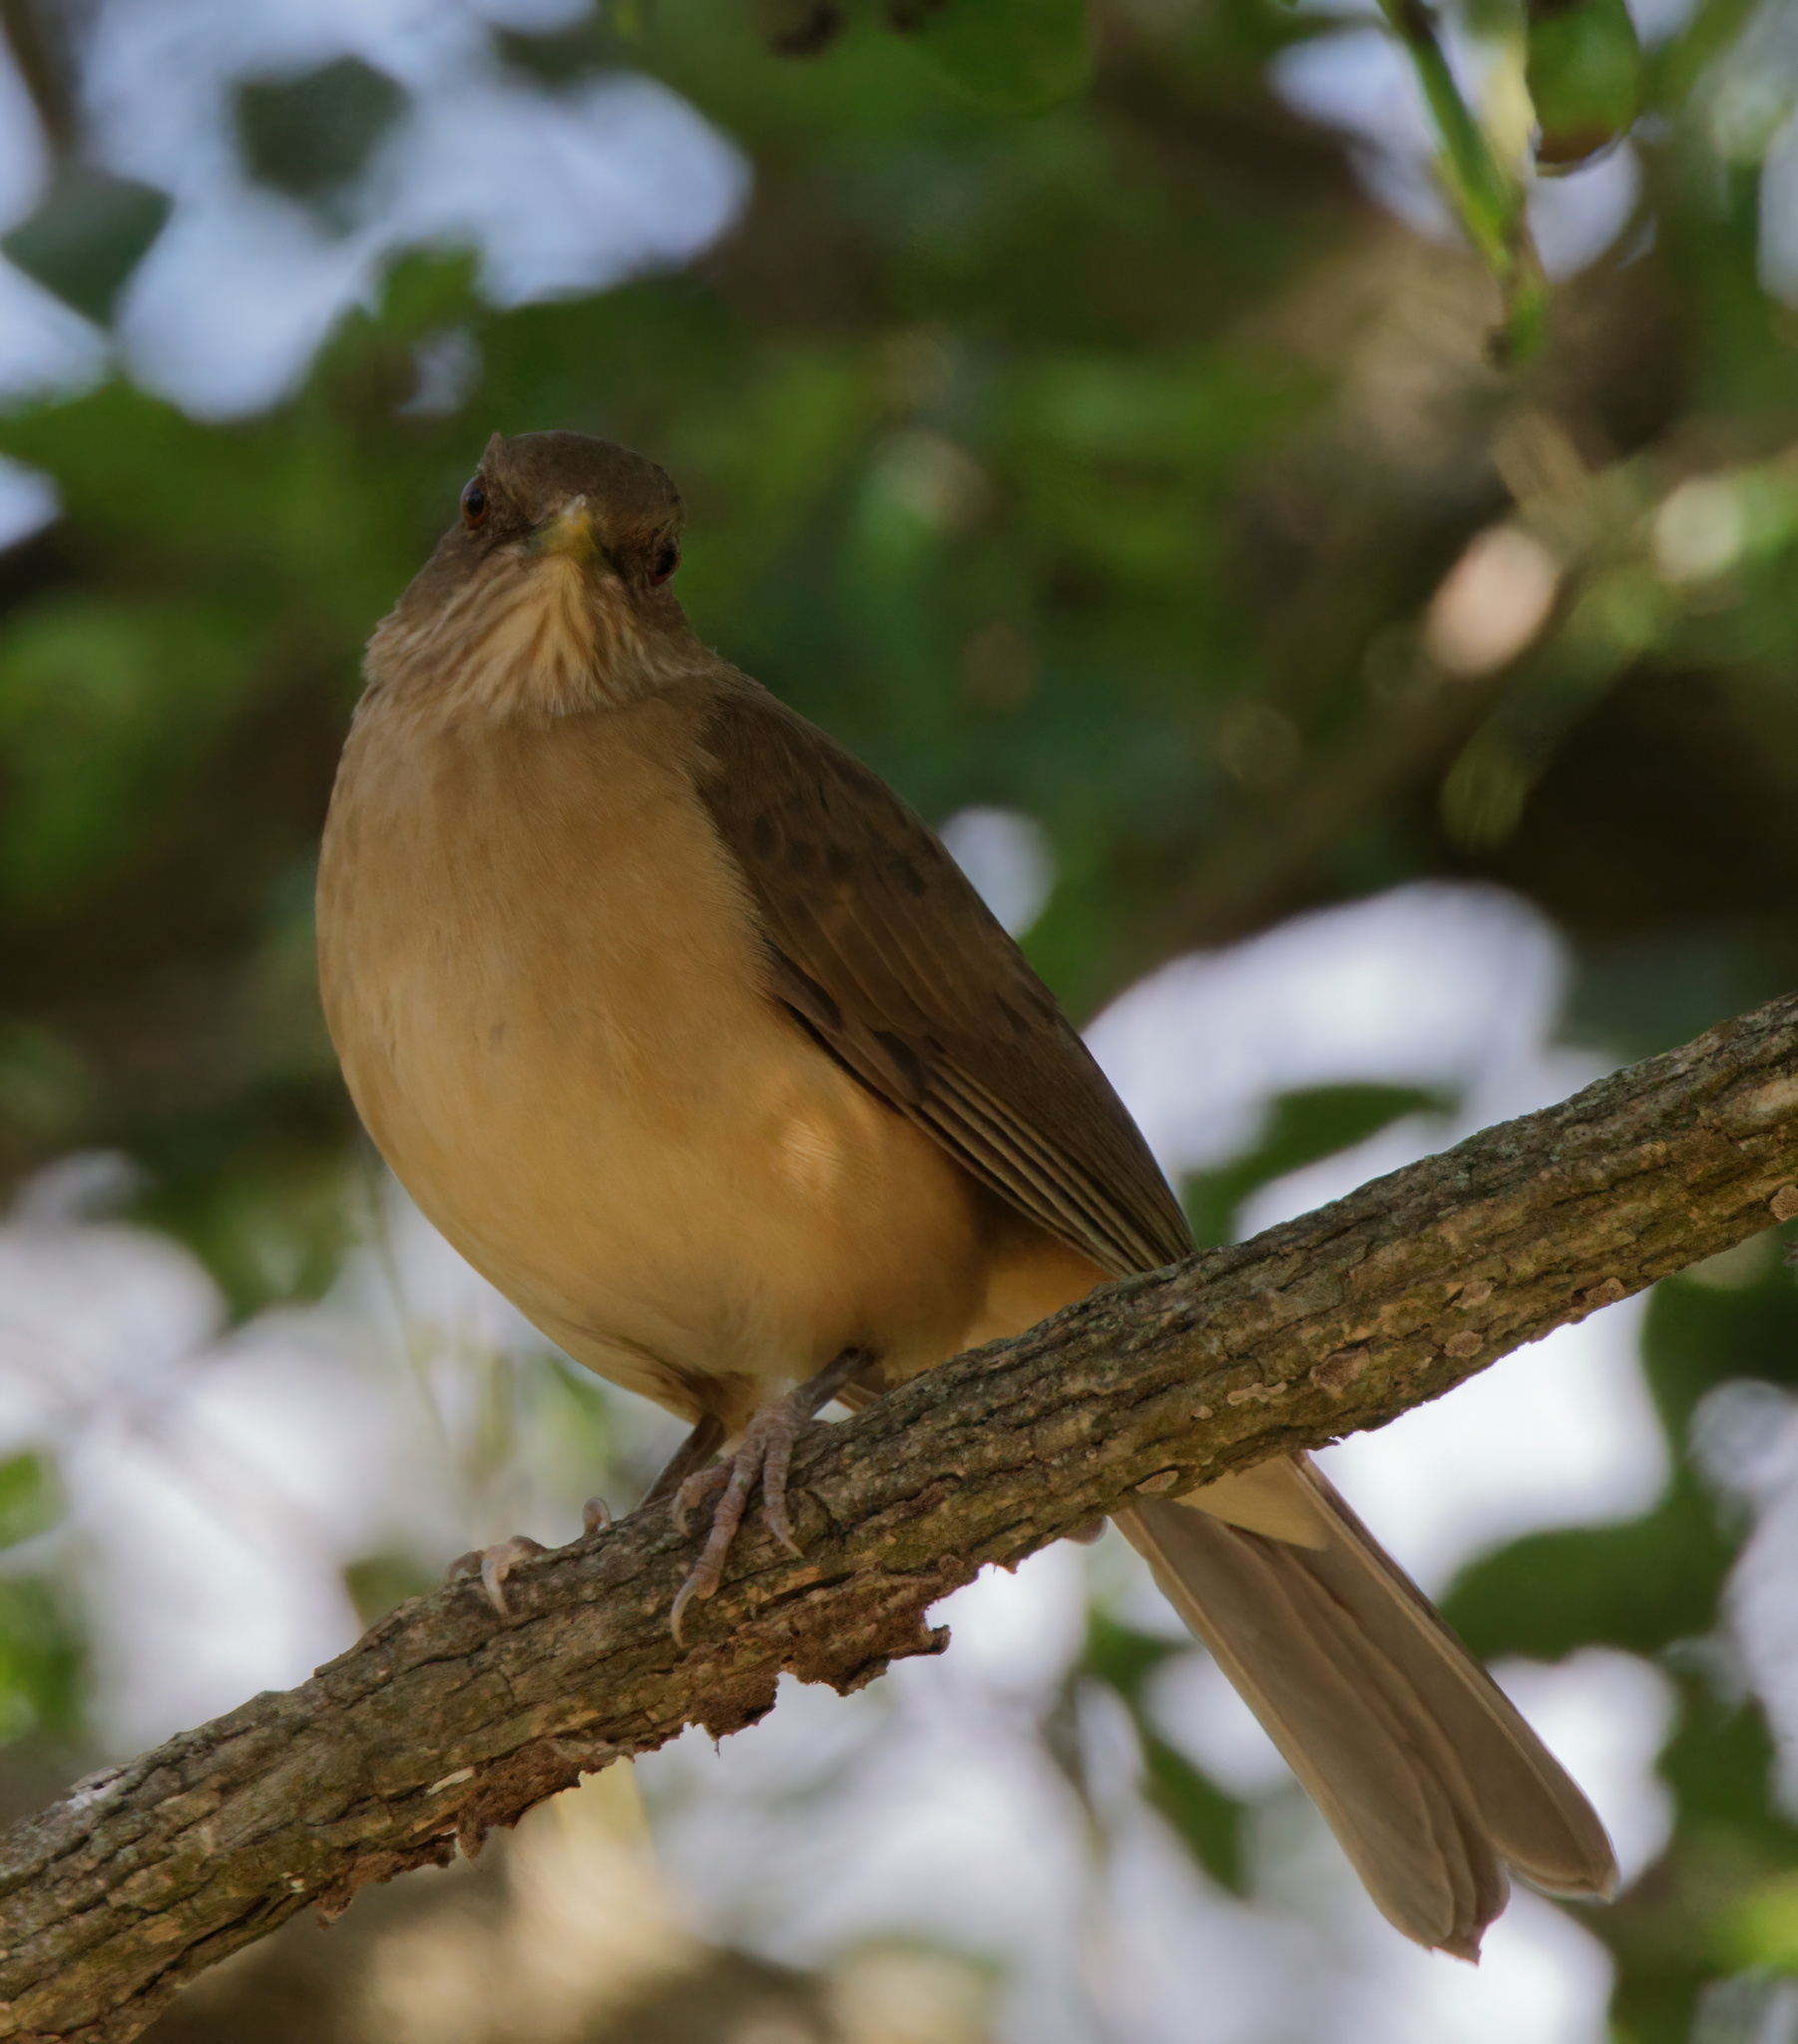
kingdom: Animalia
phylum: Chordata
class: Aves
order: Passeriformes
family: Turdidae
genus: Turdus
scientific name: Turdus grayi
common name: Clay-colored thrush
